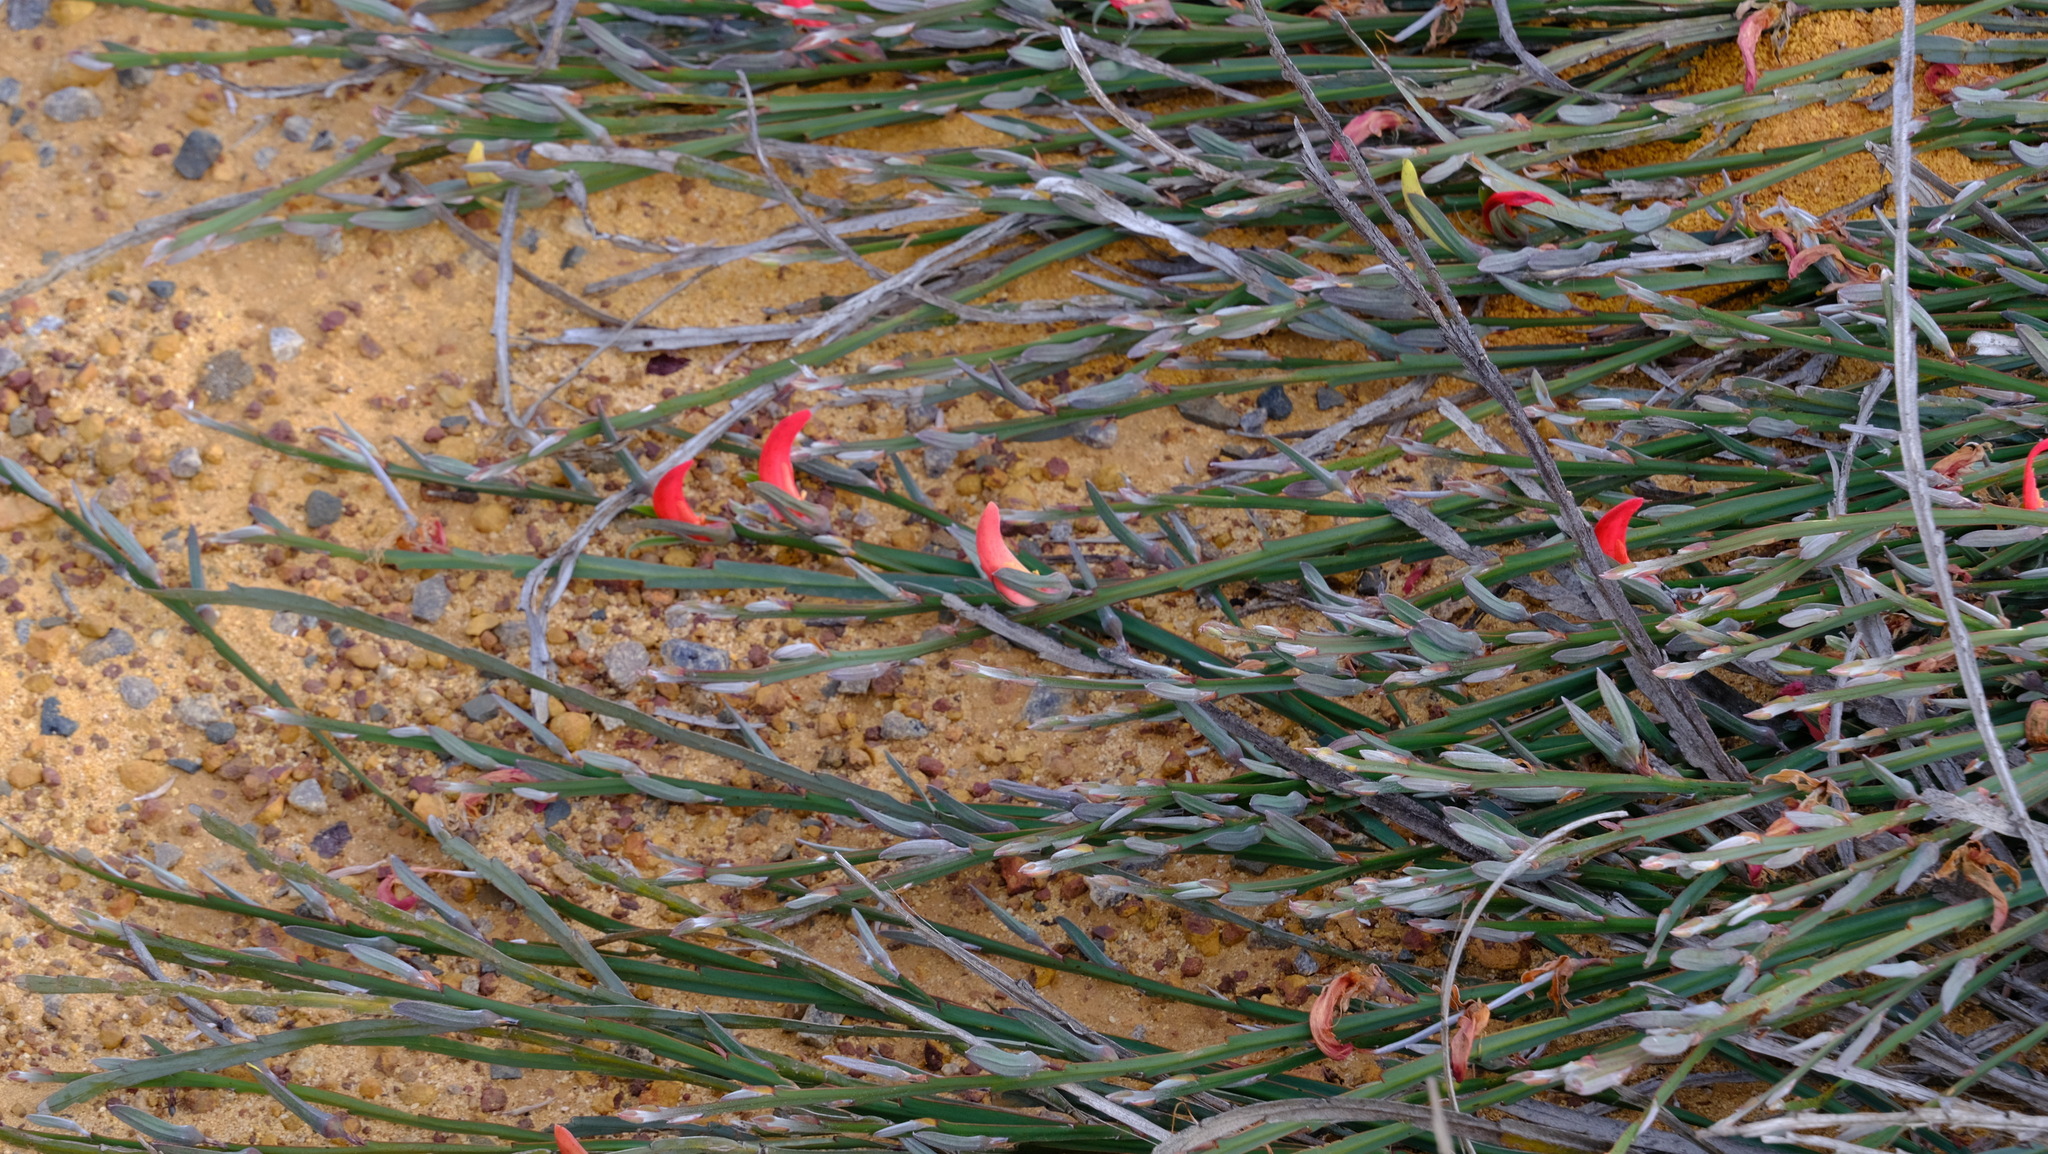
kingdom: Plantae
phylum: Tracheophyta
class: Magnoliopsida
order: Fabales
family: Fabaceae
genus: Leptosema
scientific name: Leptosema aphyllum
